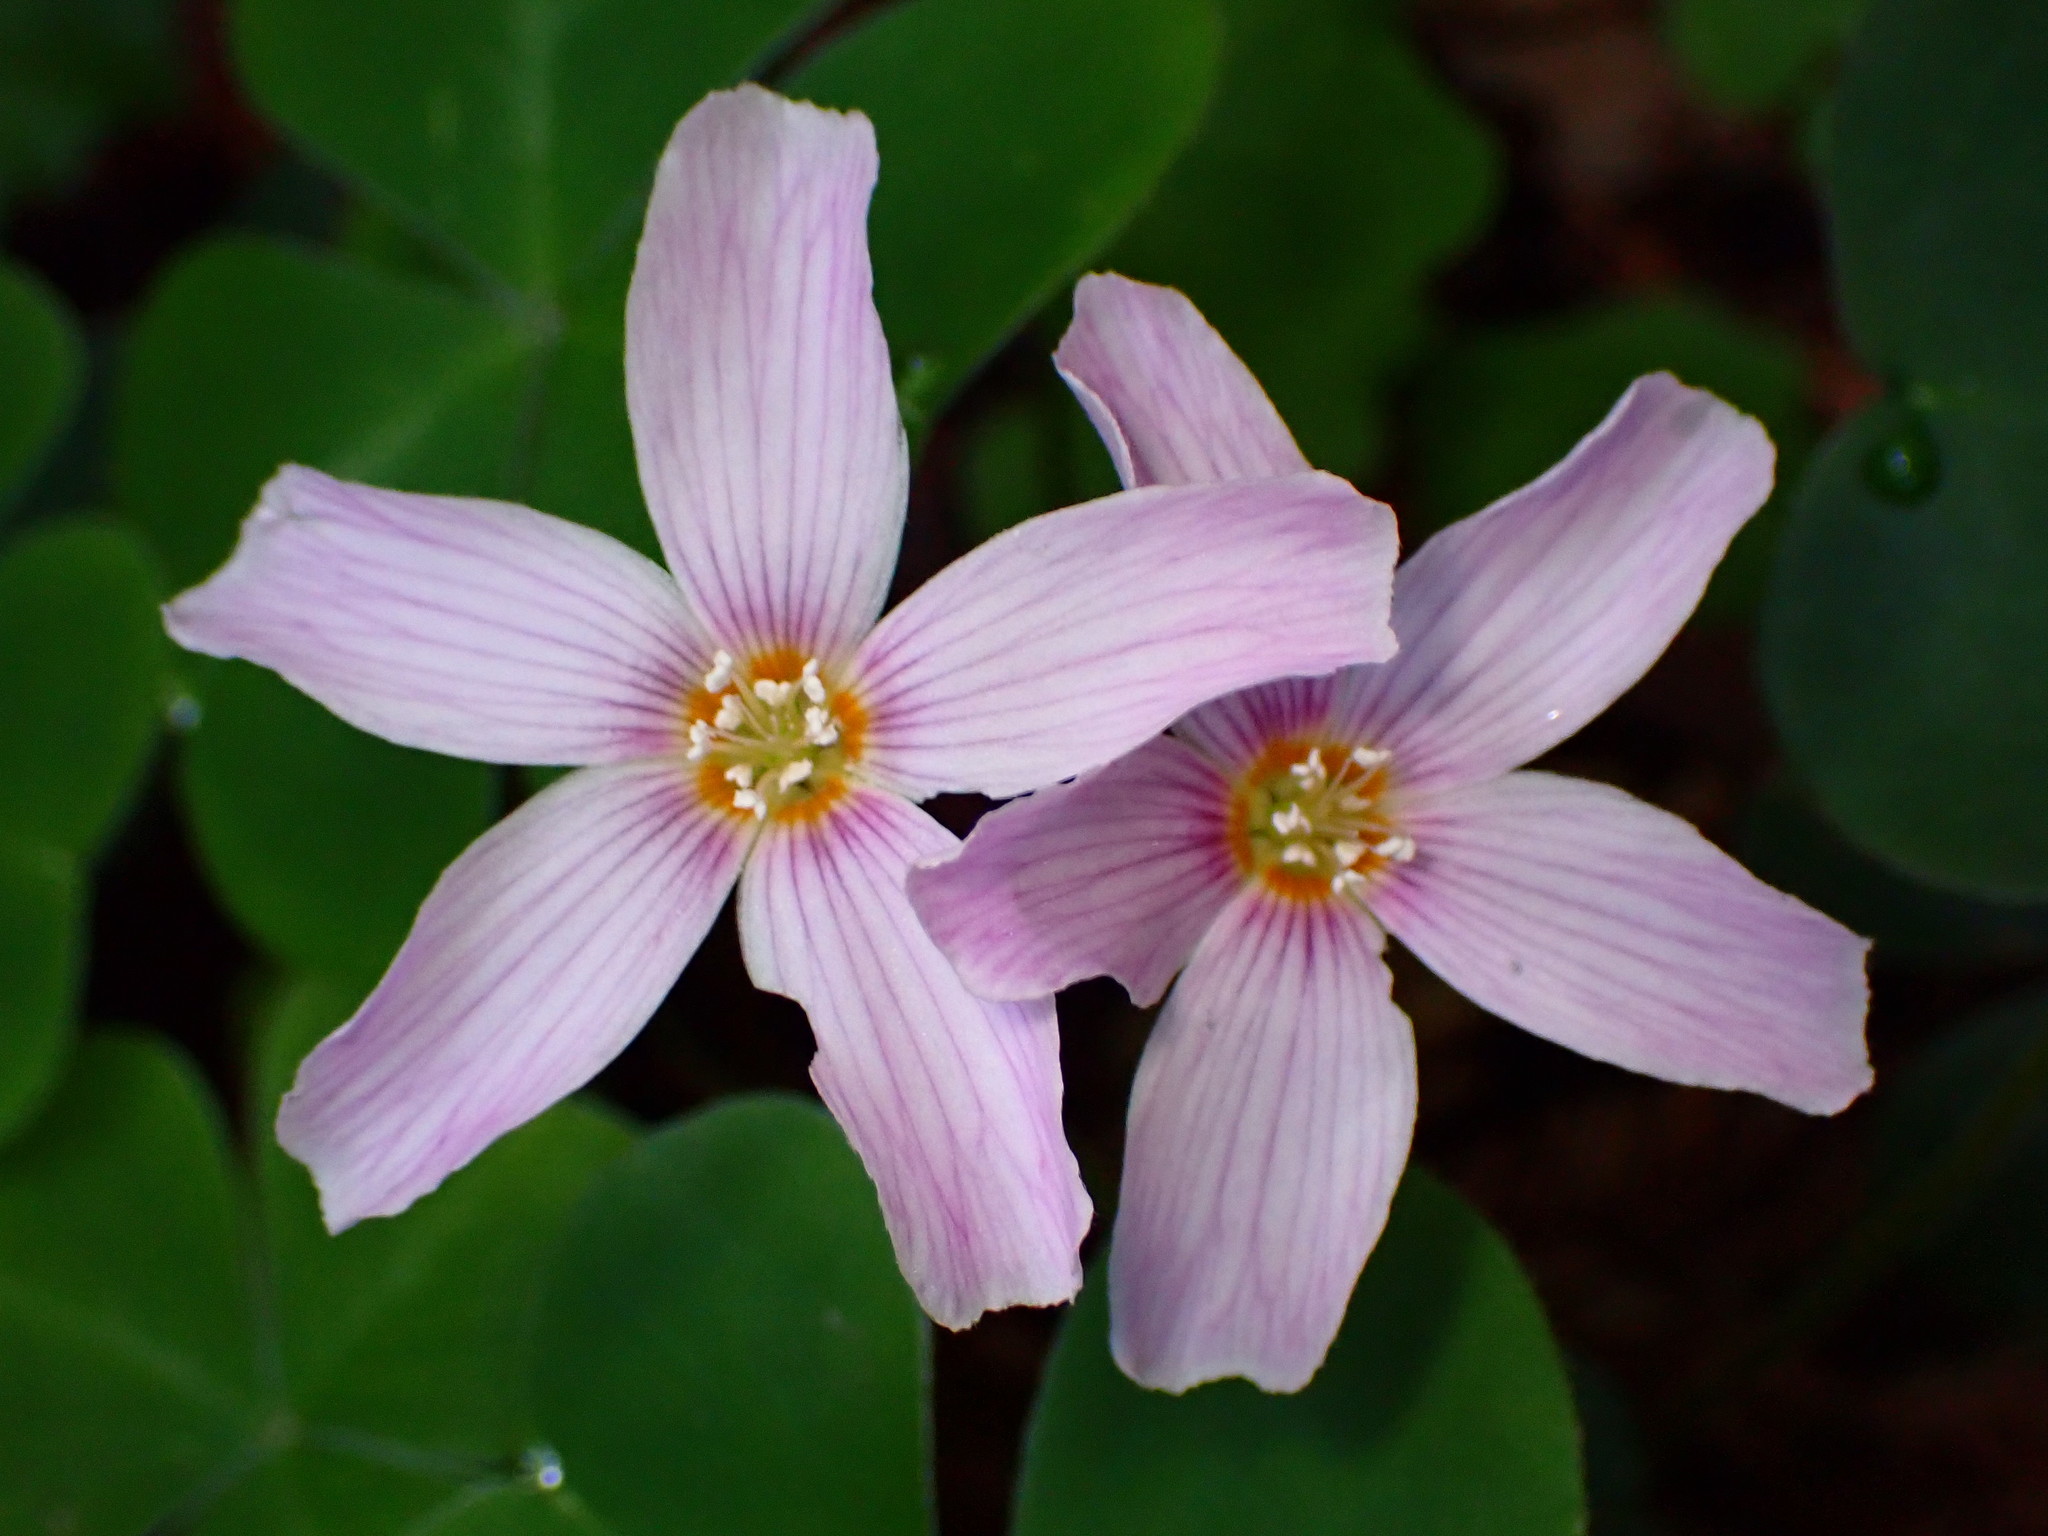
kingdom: Plantae
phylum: Tracheophyta
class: Magnoliopsida
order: Oxalidales
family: Oxalidaceae
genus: Oxalis
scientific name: Oxalis oregana
